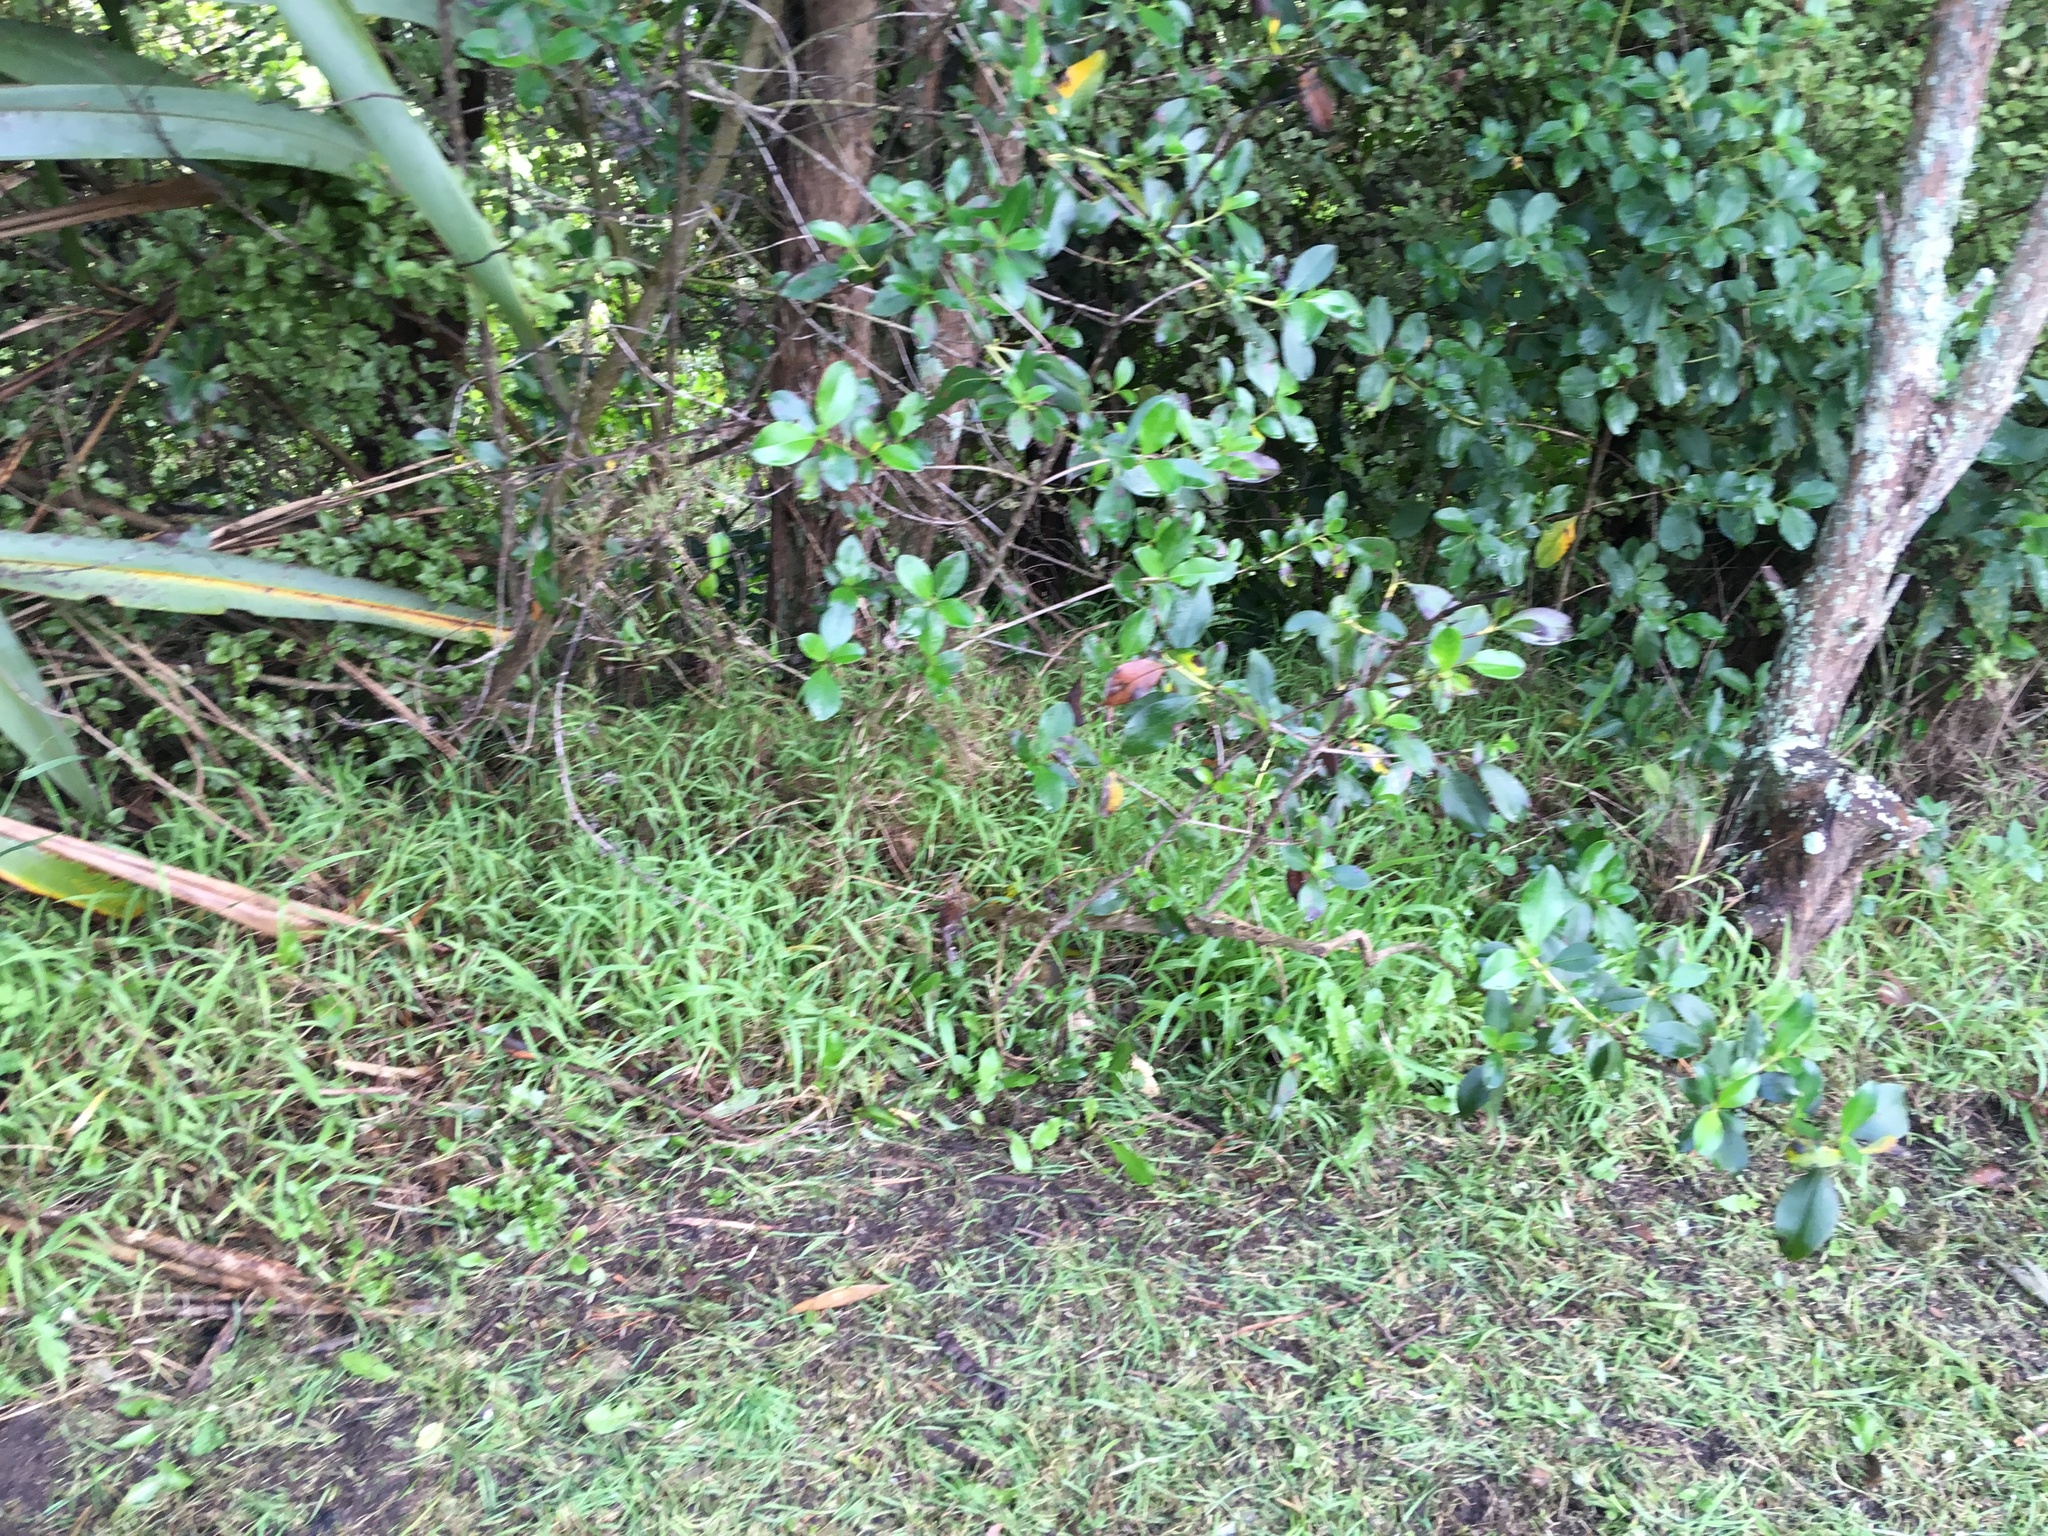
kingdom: Plantae
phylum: Tracheophyta
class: Liliopsida
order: Poales
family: Poaceae
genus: Ehrharta
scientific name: Ehrharta erecta
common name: Panic veldtgrass
